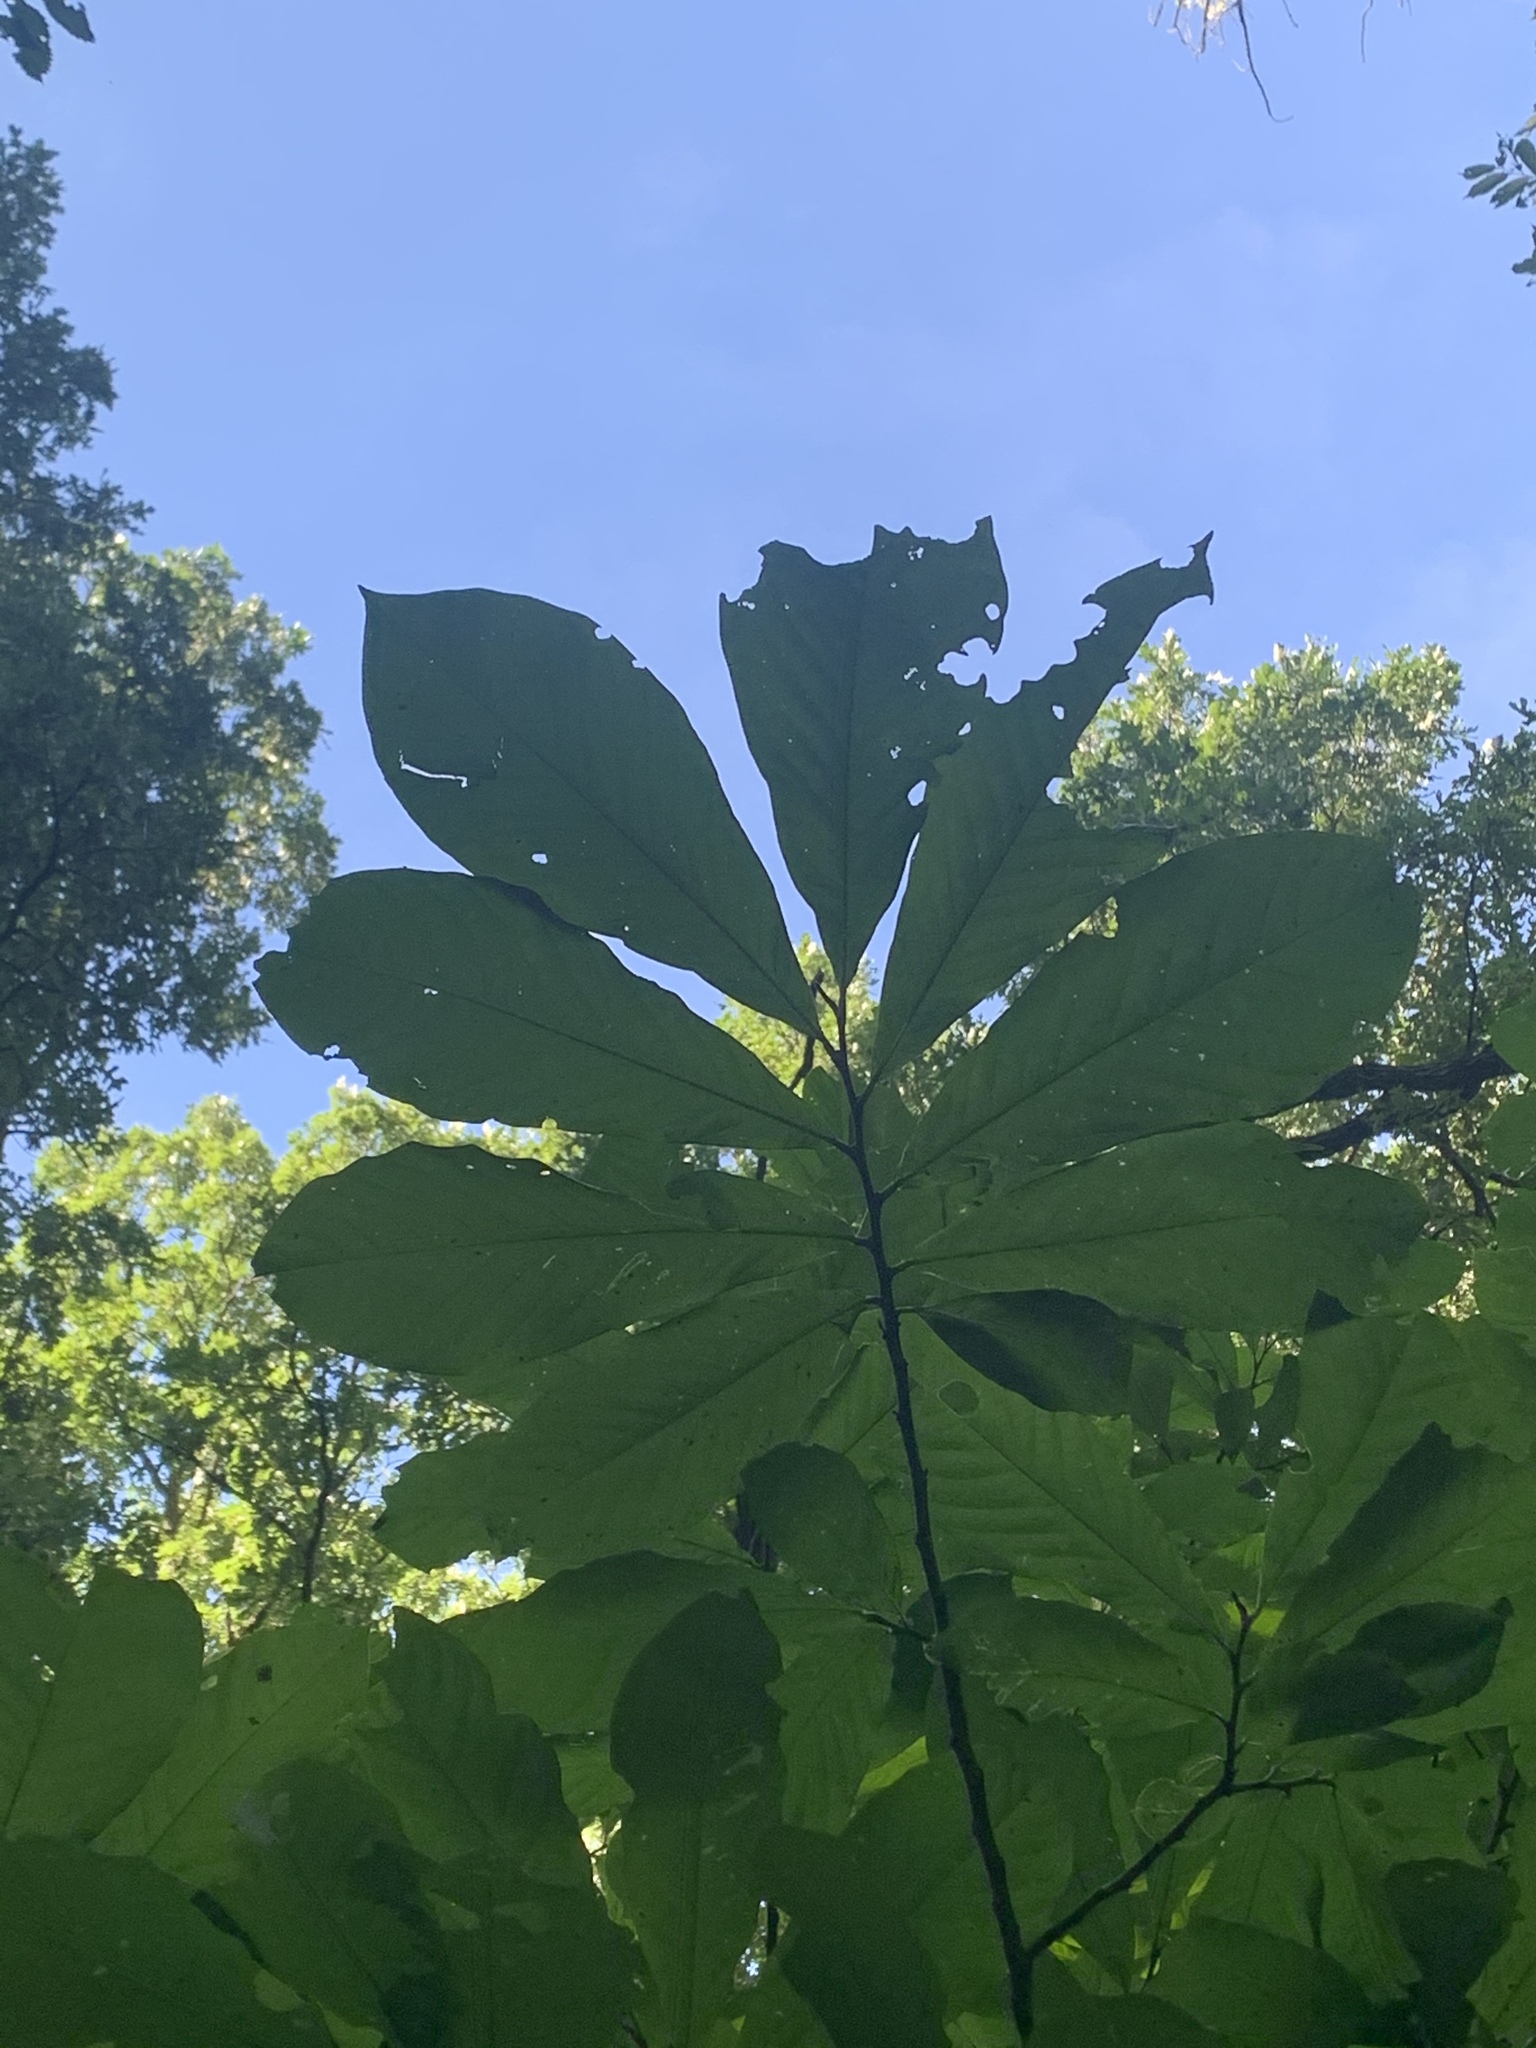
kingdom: Plantae
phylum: Tracheophyta
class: Magnoliopsida
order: Magnoliales
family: Annonaceae
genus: Asimina
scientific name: Asimina triloba
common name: Dog-banana
